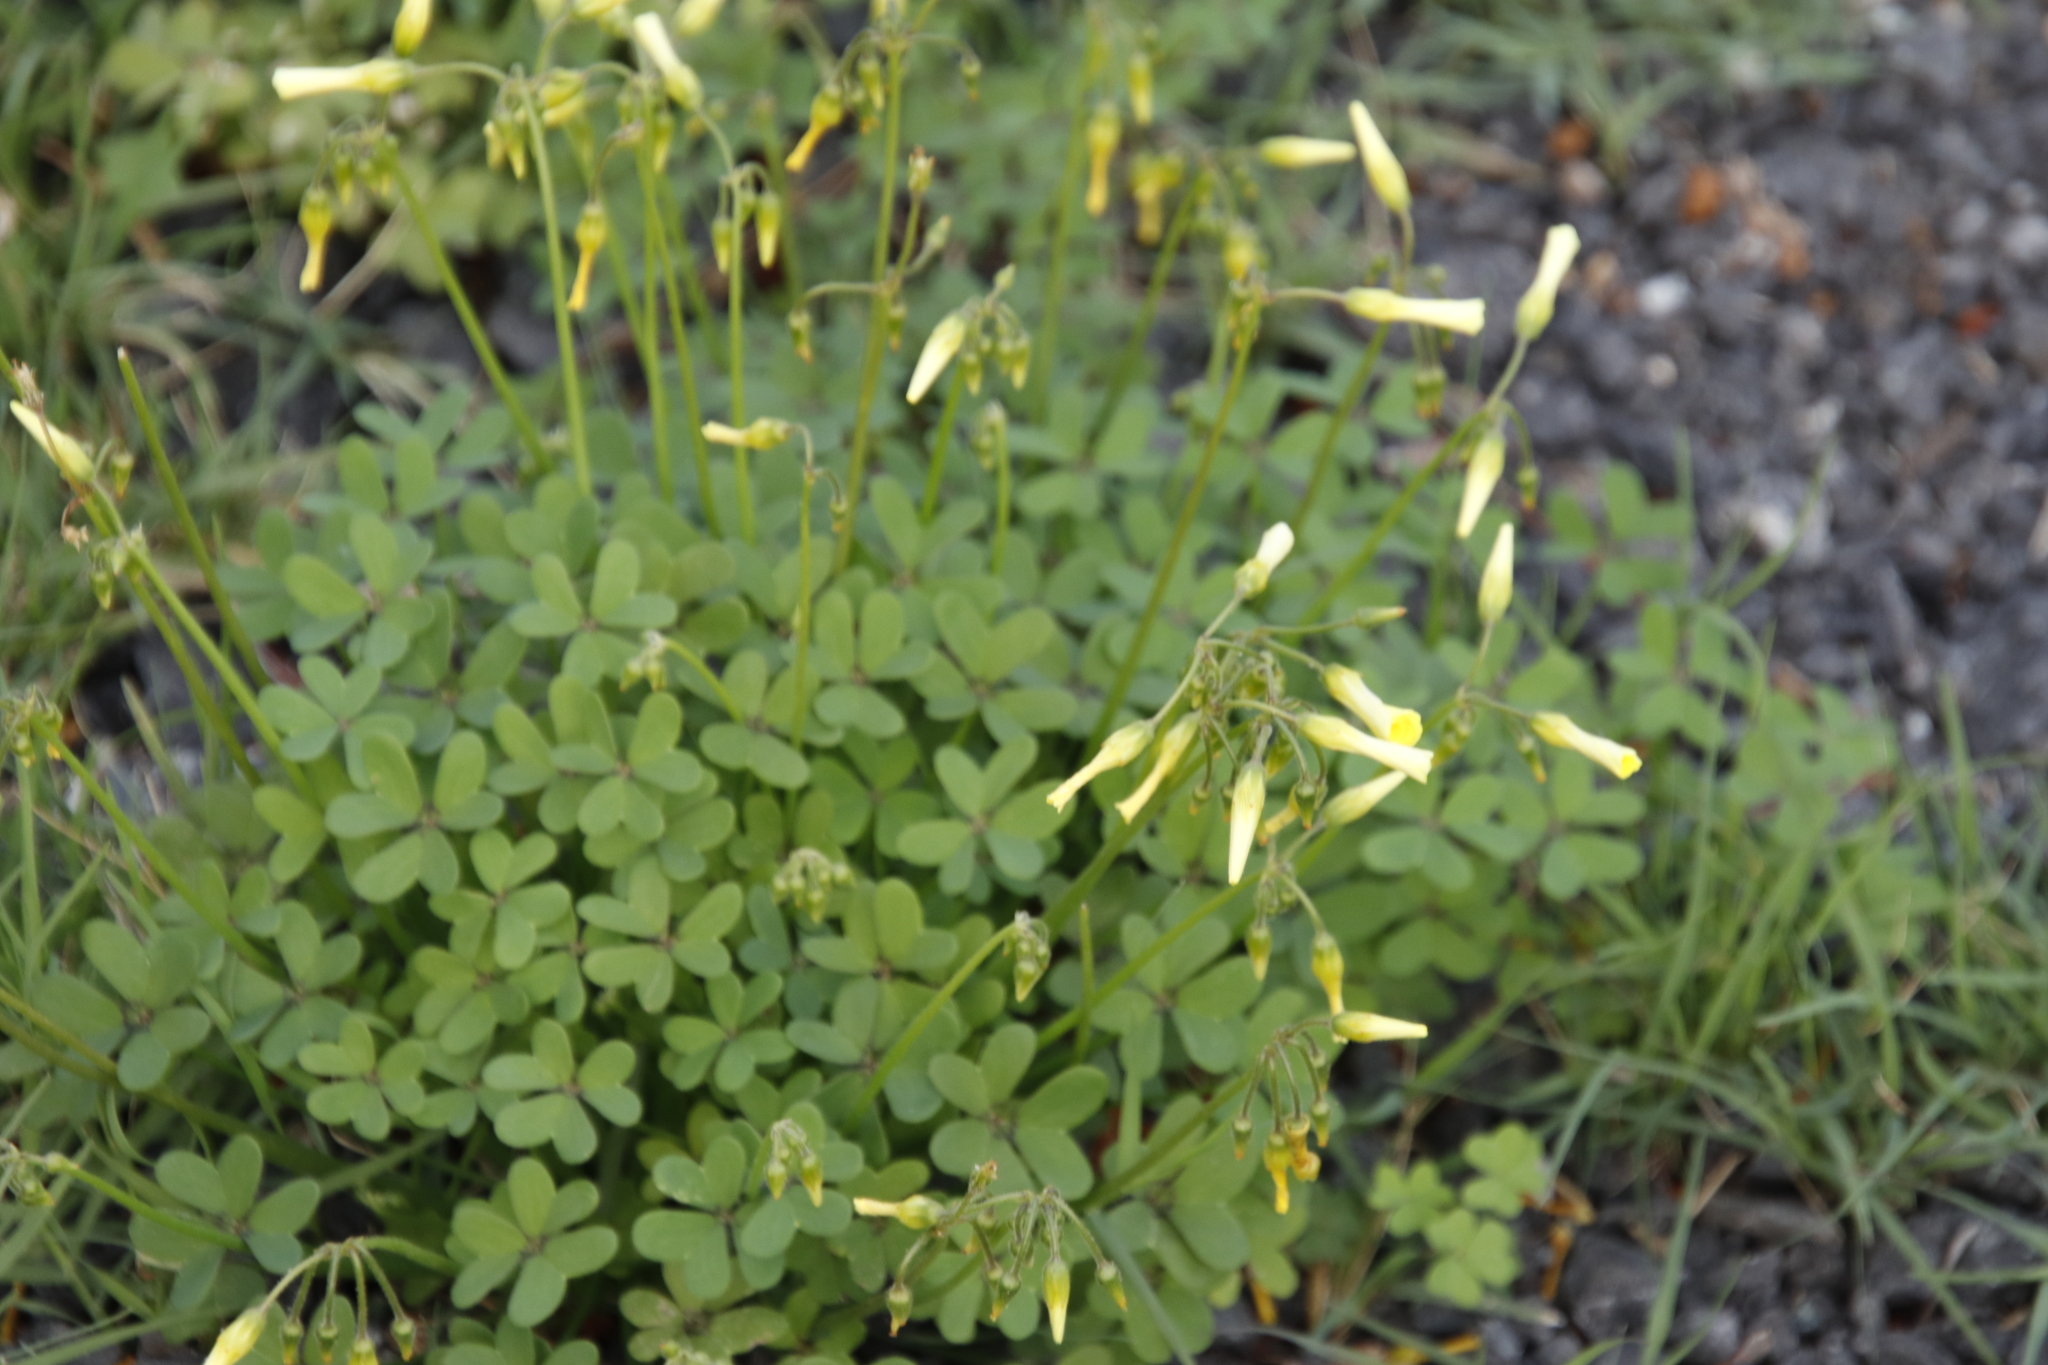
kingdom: Plantae
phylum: Tracheophyta
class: Magnoliopsida
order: Oxalidales
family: Oxalidaceae
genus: Oxalis
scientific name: Oxalis pes-caprae
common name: Bermuda-buttercup
